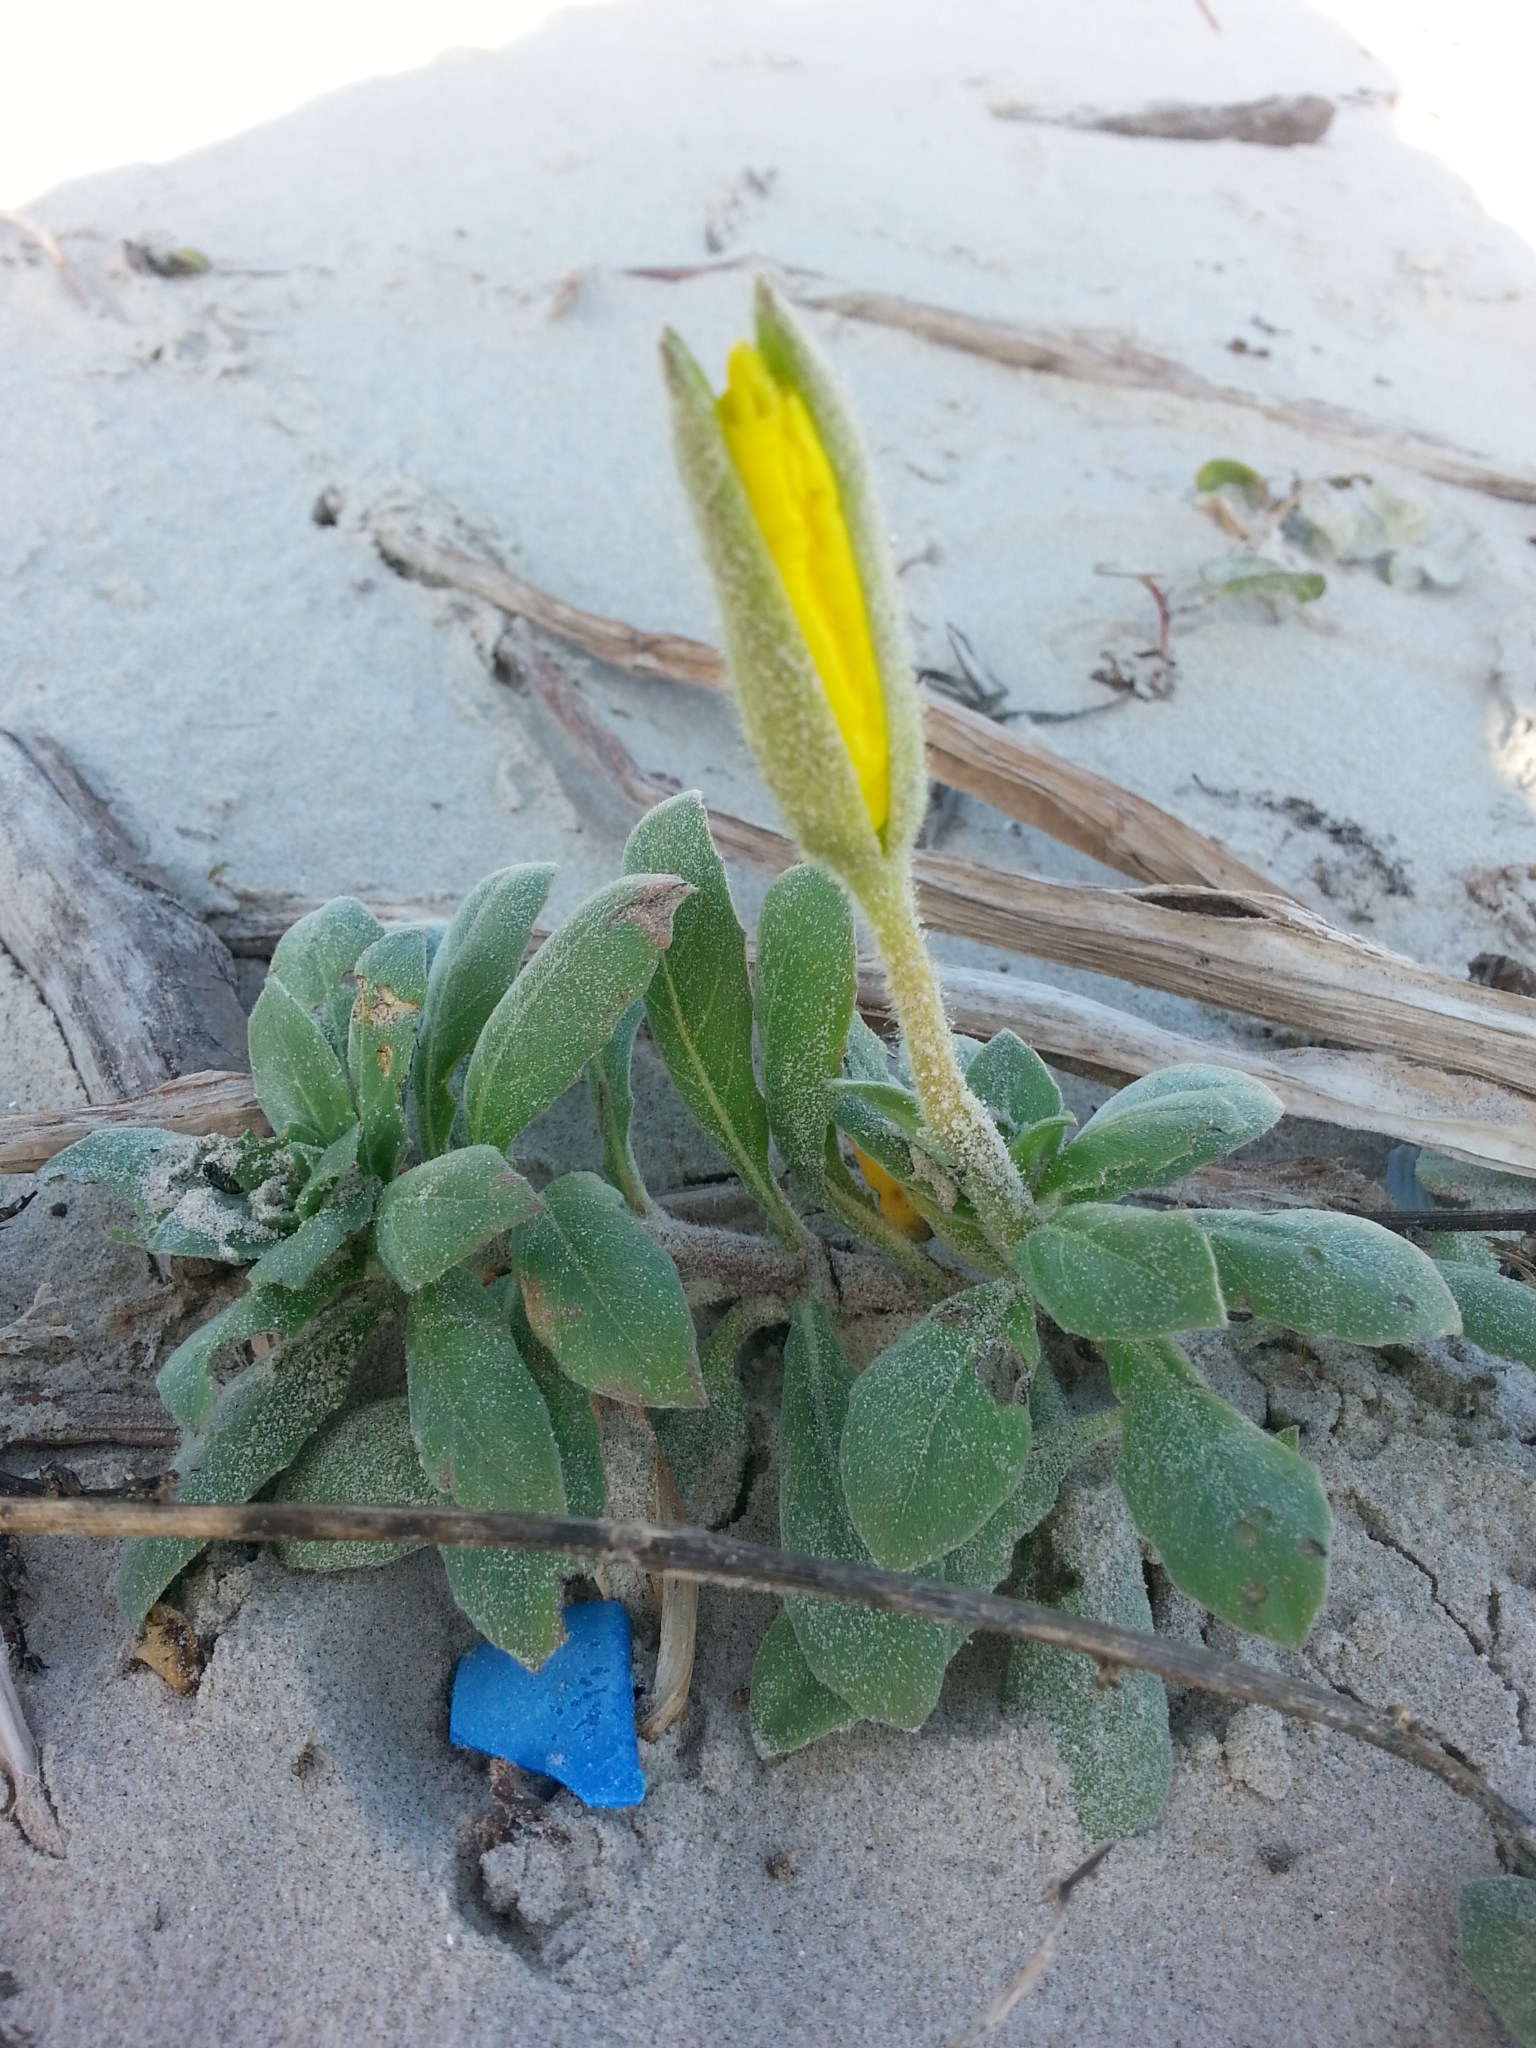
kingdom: Plantae
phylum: Tracheophyta
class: Magnoliopsida
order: Myrtales
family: Onagraceae
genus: Oenothera
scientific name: Oenothera drummondii
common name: Beach evening-primrose
